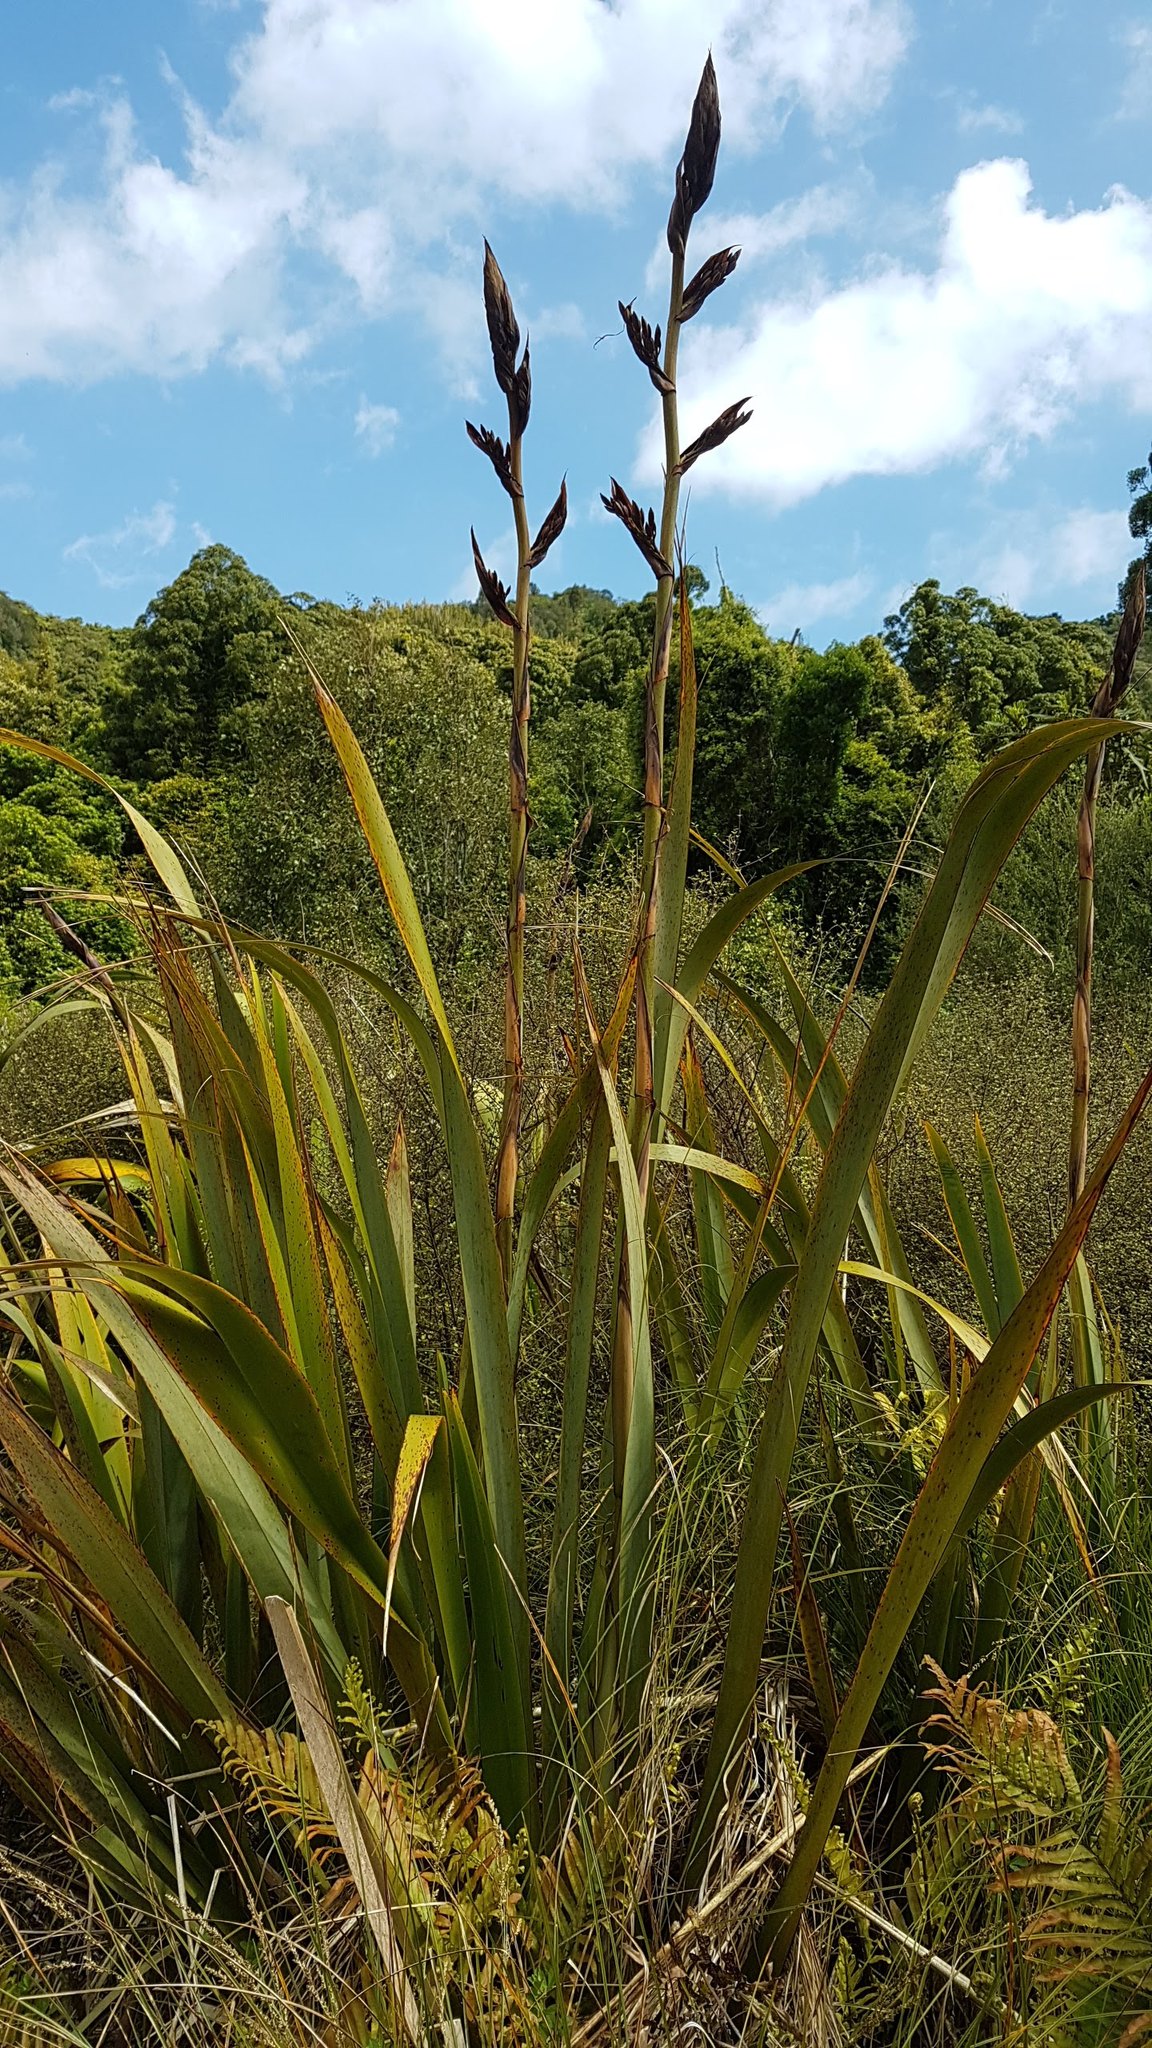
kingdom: Plantae
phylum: Tracheophyta
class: Liliopsida
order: Asparagales
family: Asphodelaceae
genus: Phormium
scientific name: Phormium tenax
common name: New zealand flax
